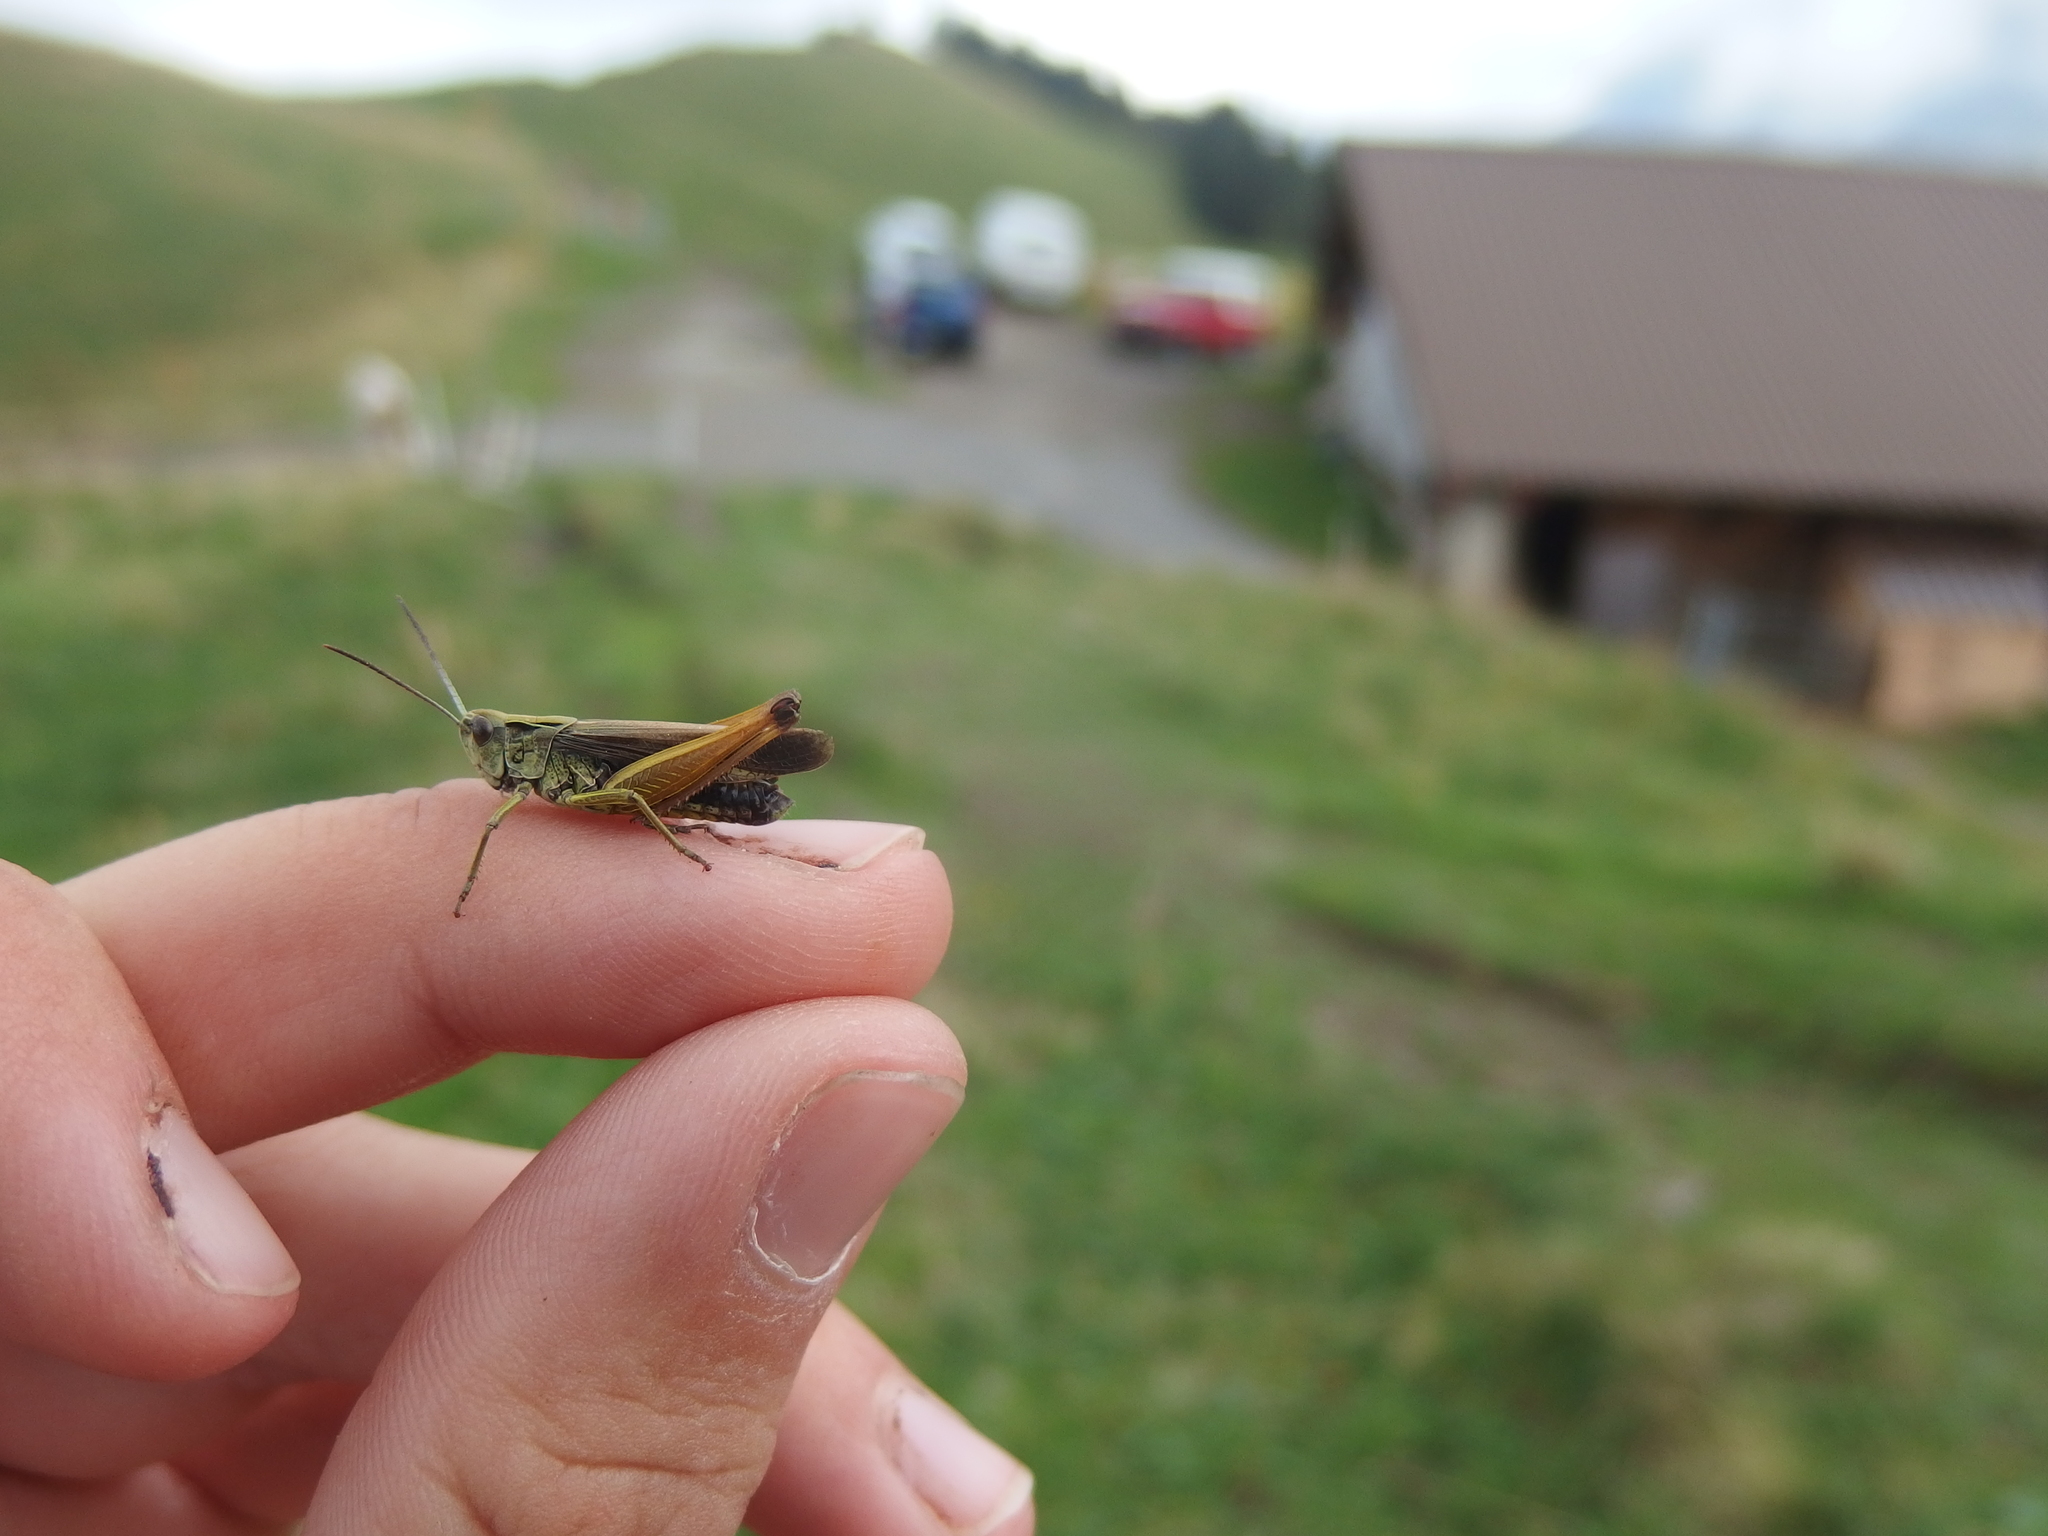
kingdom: Animalia
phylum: Arthropoda
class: Insecta
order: Orthoptera
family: Acrididae
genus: Omocestus
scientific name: Omocestus viridulus
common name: Common green grasshopper
